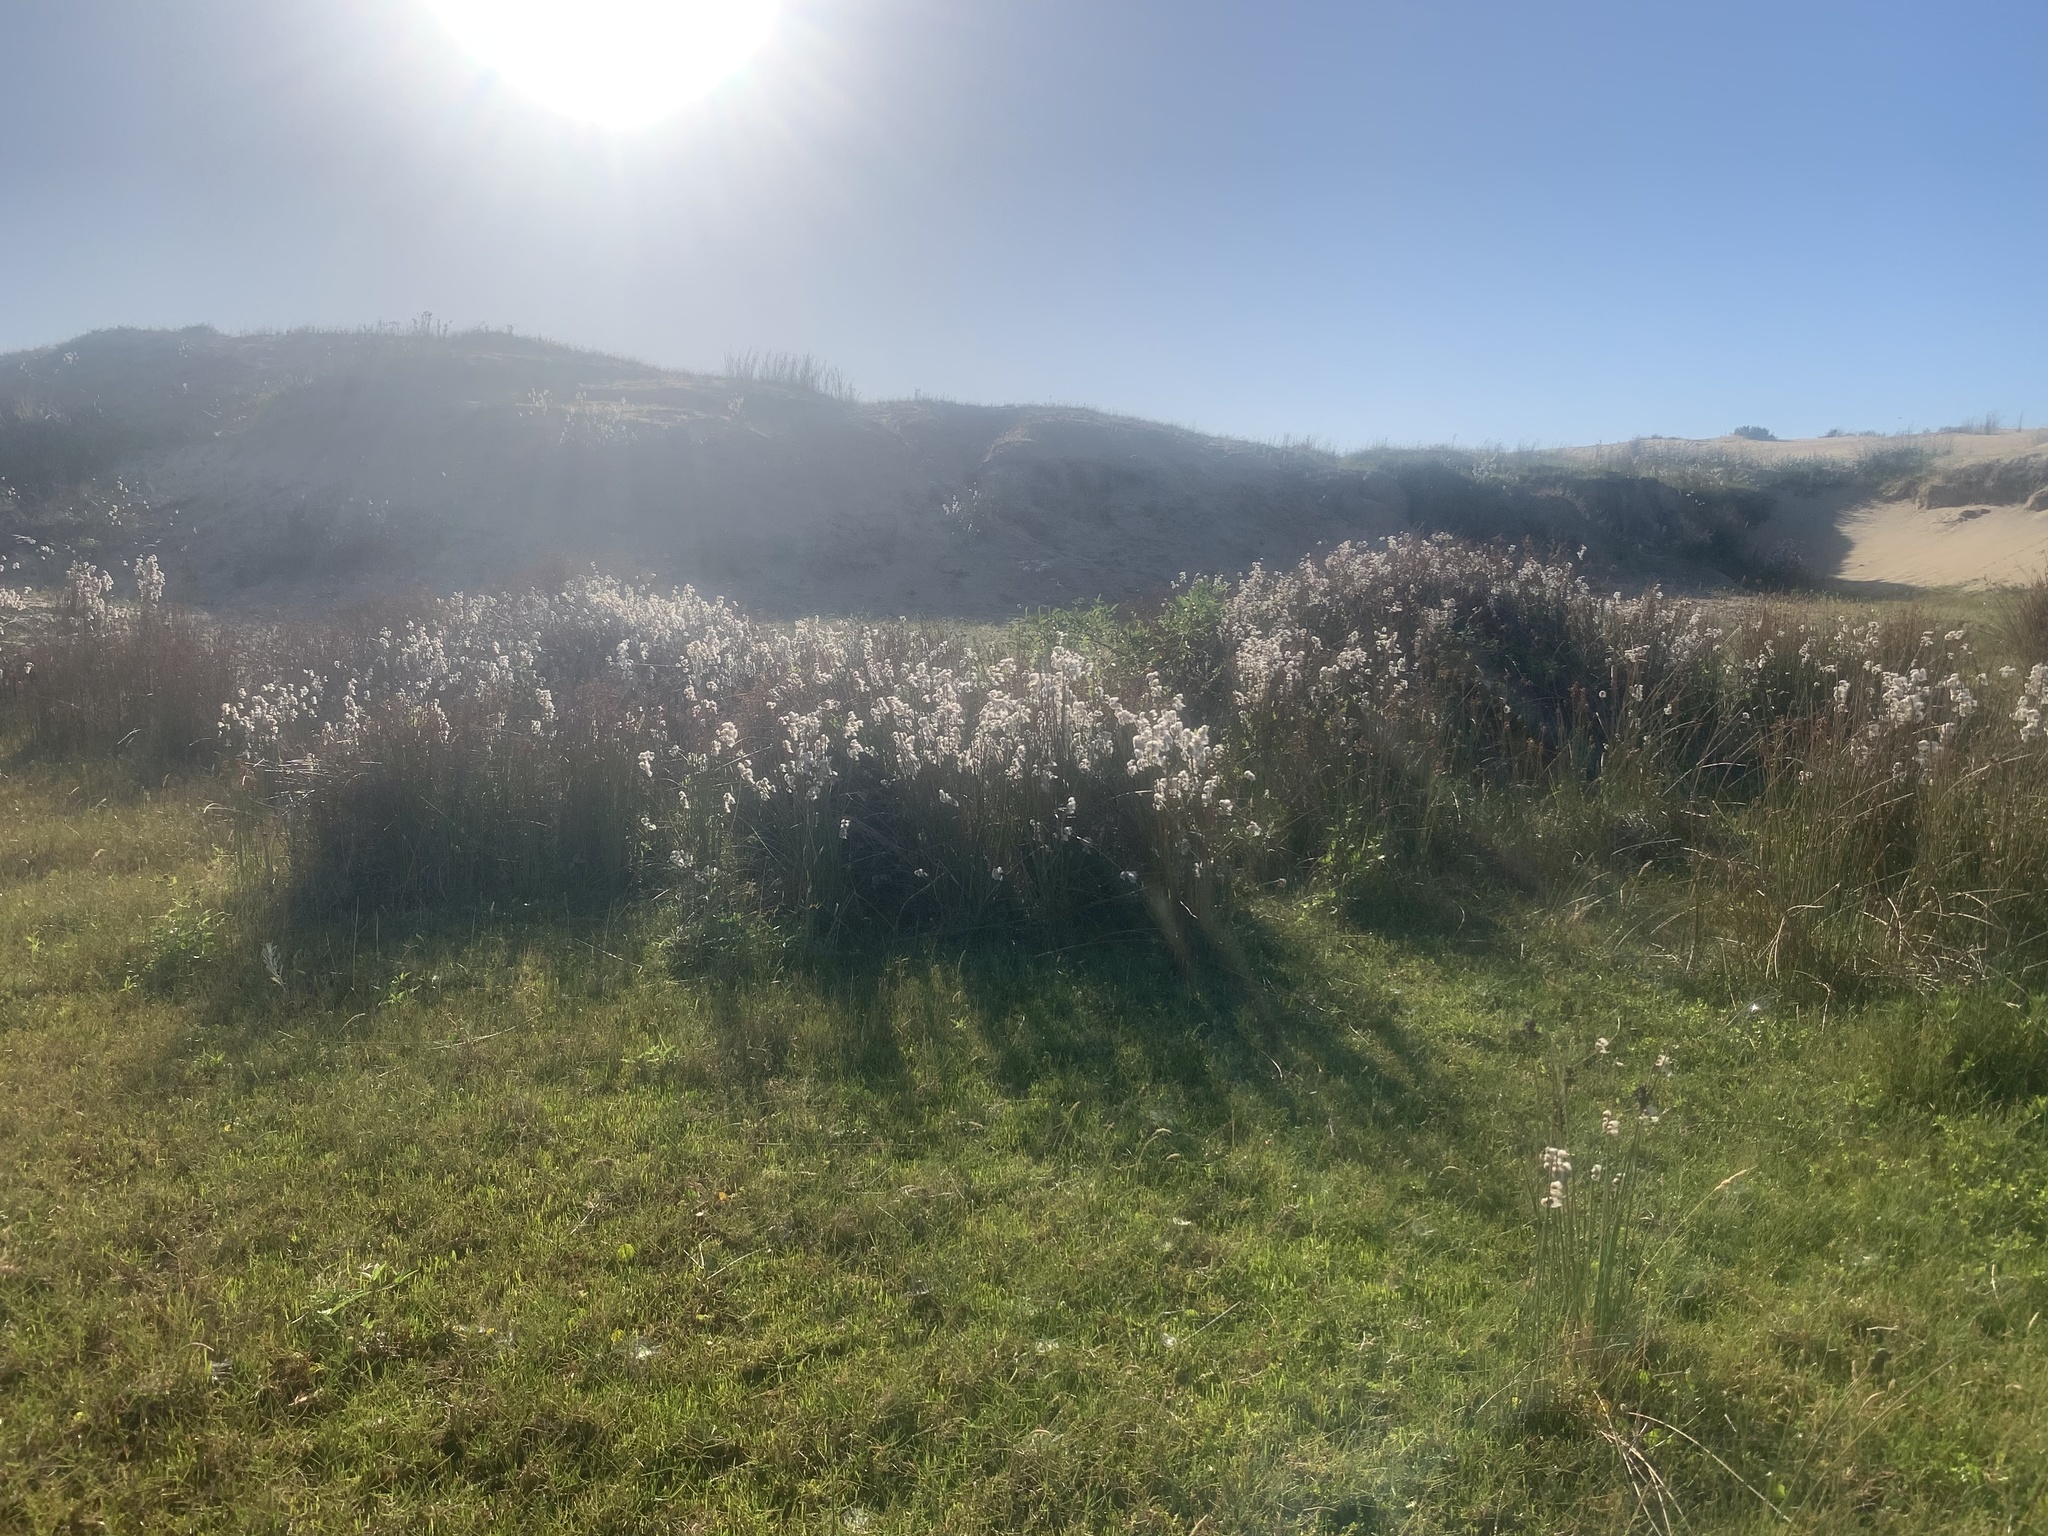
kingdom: Plantae
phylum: Tracheophyta
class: Liliopsida
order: Poales
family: Cyperaceae
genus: Cyperus
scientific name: Cyperus trigynus
